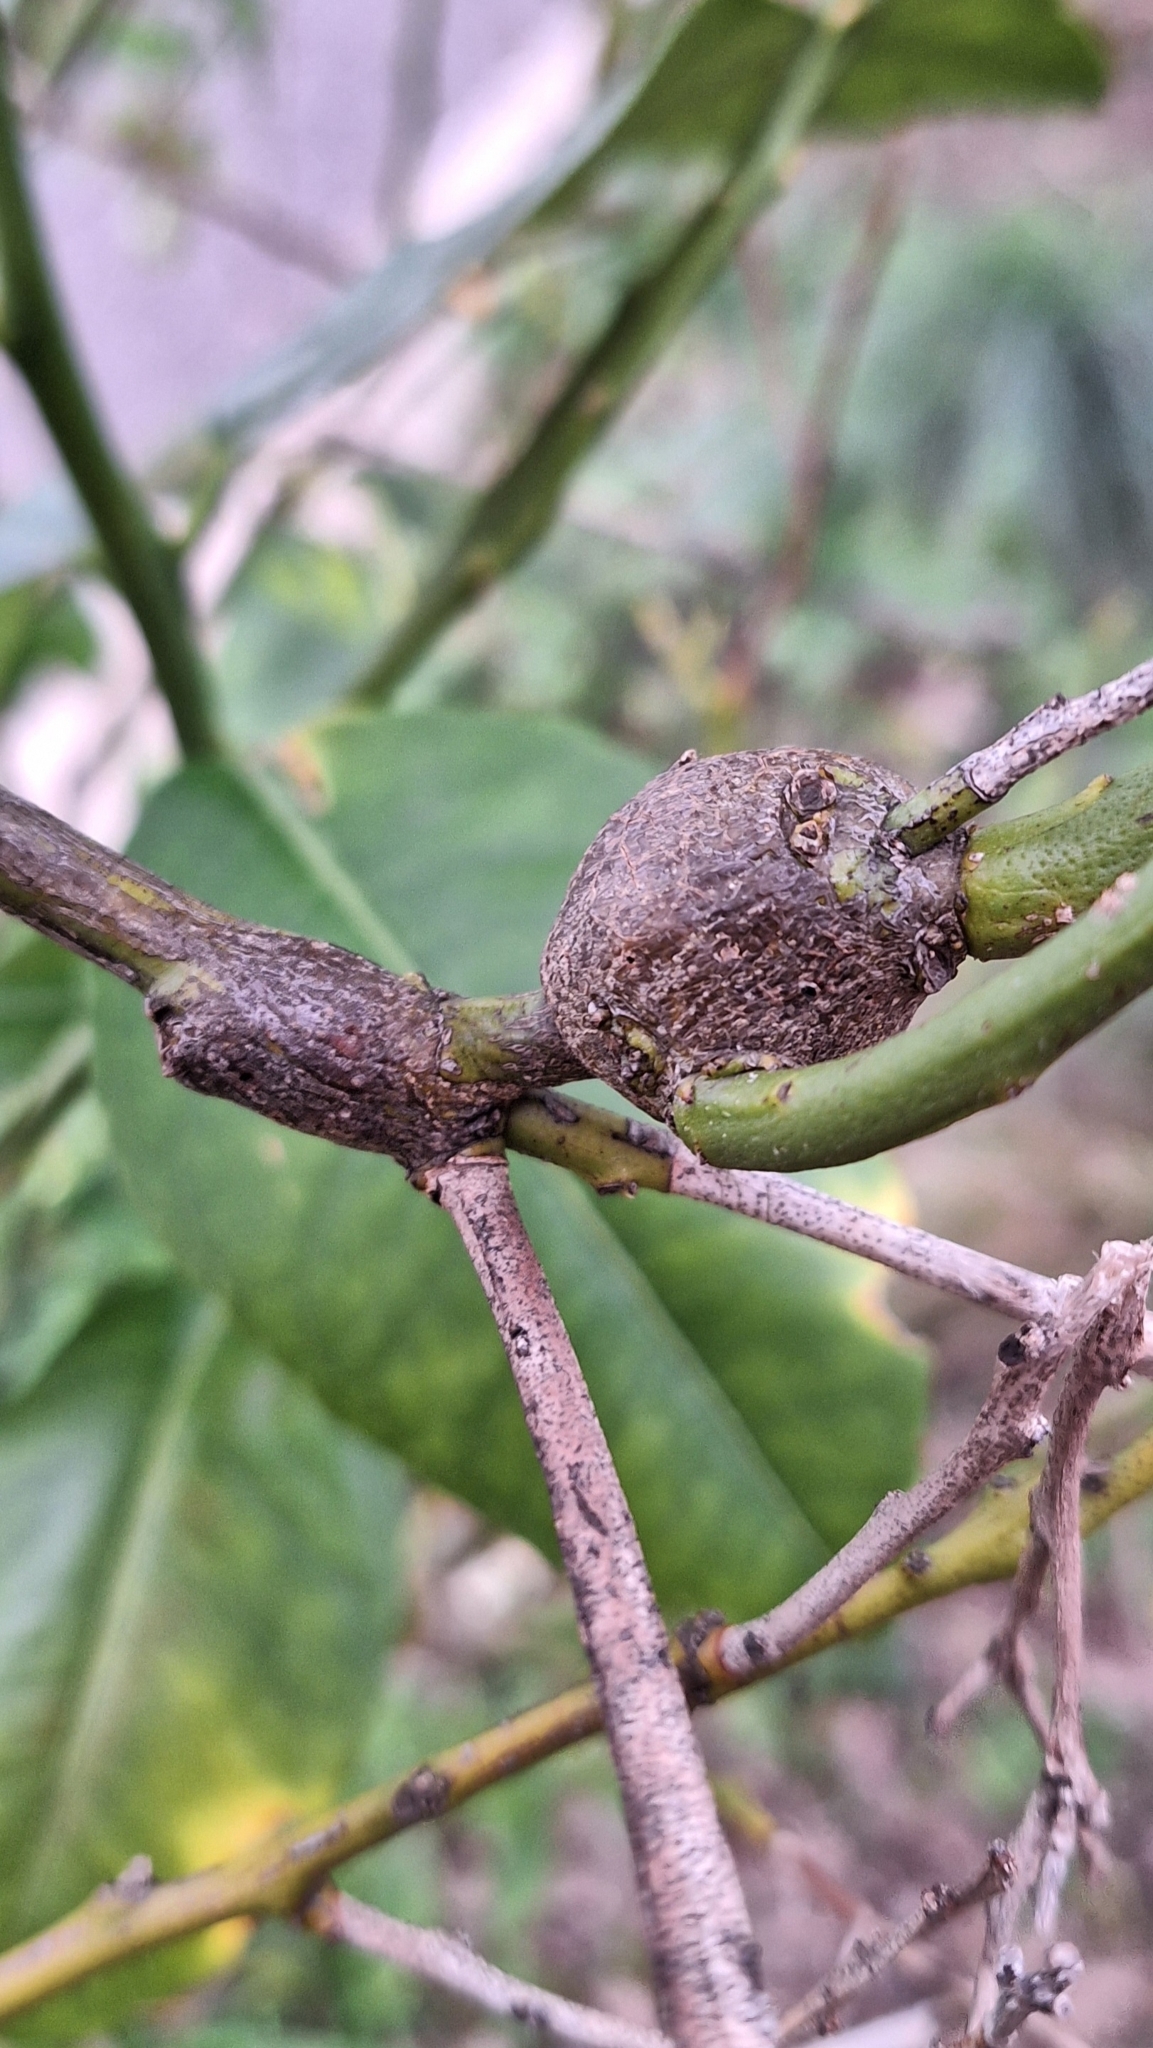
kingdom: Animalia
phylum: Arthropoda
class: Insecta
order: Hymenoptera
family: Eurytomidae
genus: Bruchophagus
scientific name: Bruchophagus fellis
